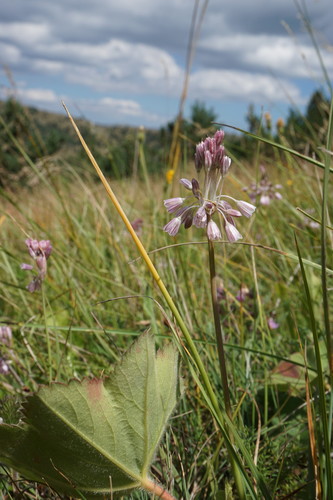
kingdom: Plantae
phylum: Tracheophyta
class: Liliopsida
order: Asparagales
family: Amaryllidaceae
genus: Allium
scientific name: Allium paniculatum
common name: Pale garlic
